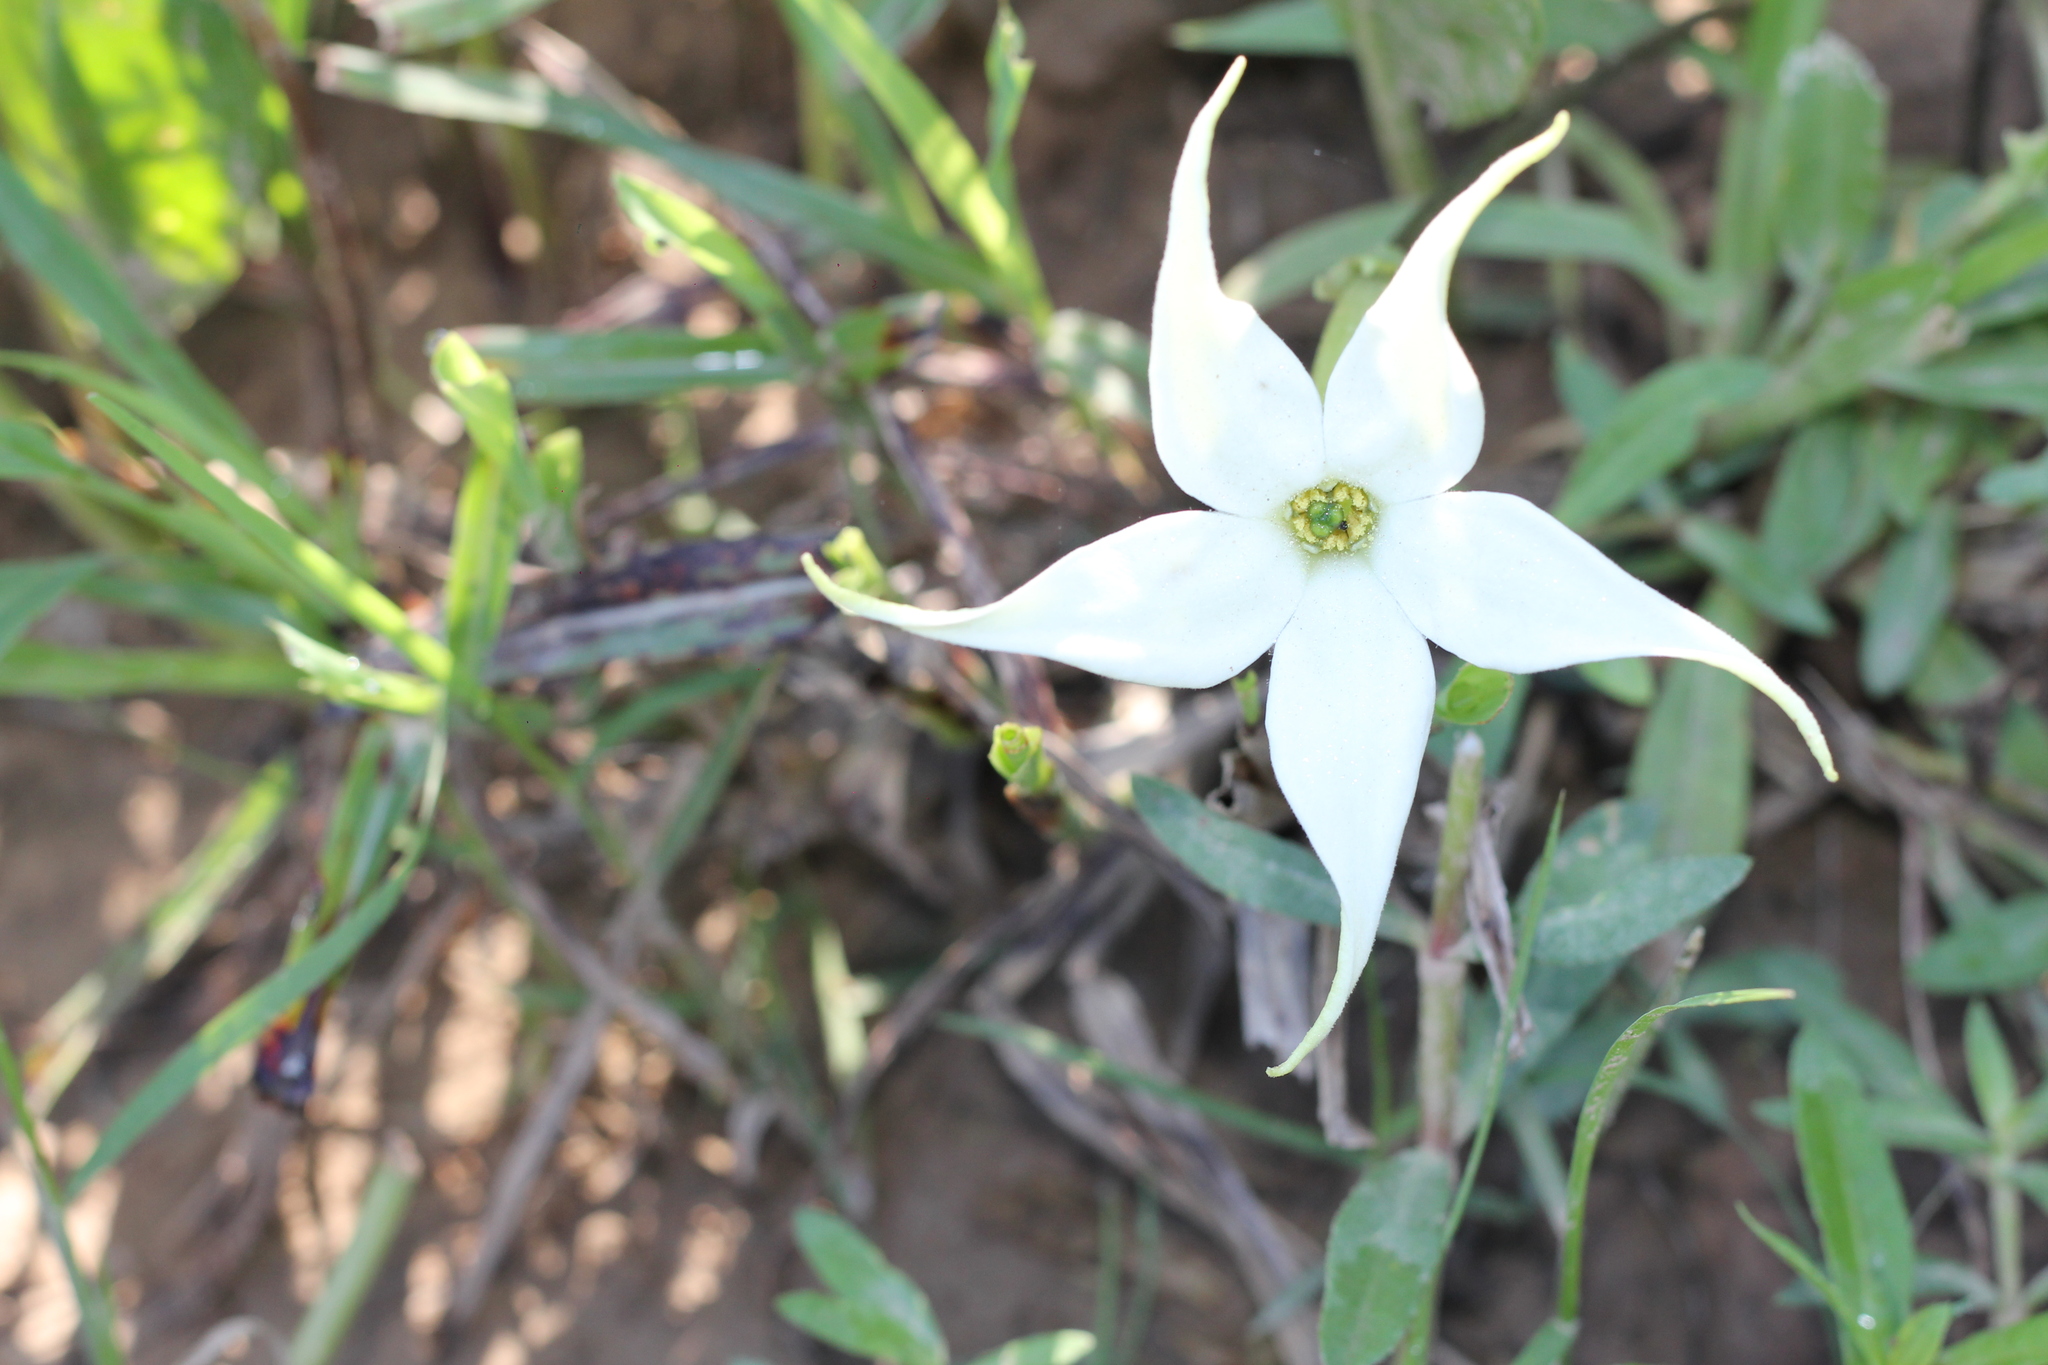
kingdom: Plantae
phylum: Tracheophyta
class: Magnoliopsida
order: Solanales
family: Solanaceae
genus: Jaborosa
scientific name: Jaborosa integrifolia
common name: Springblossom
